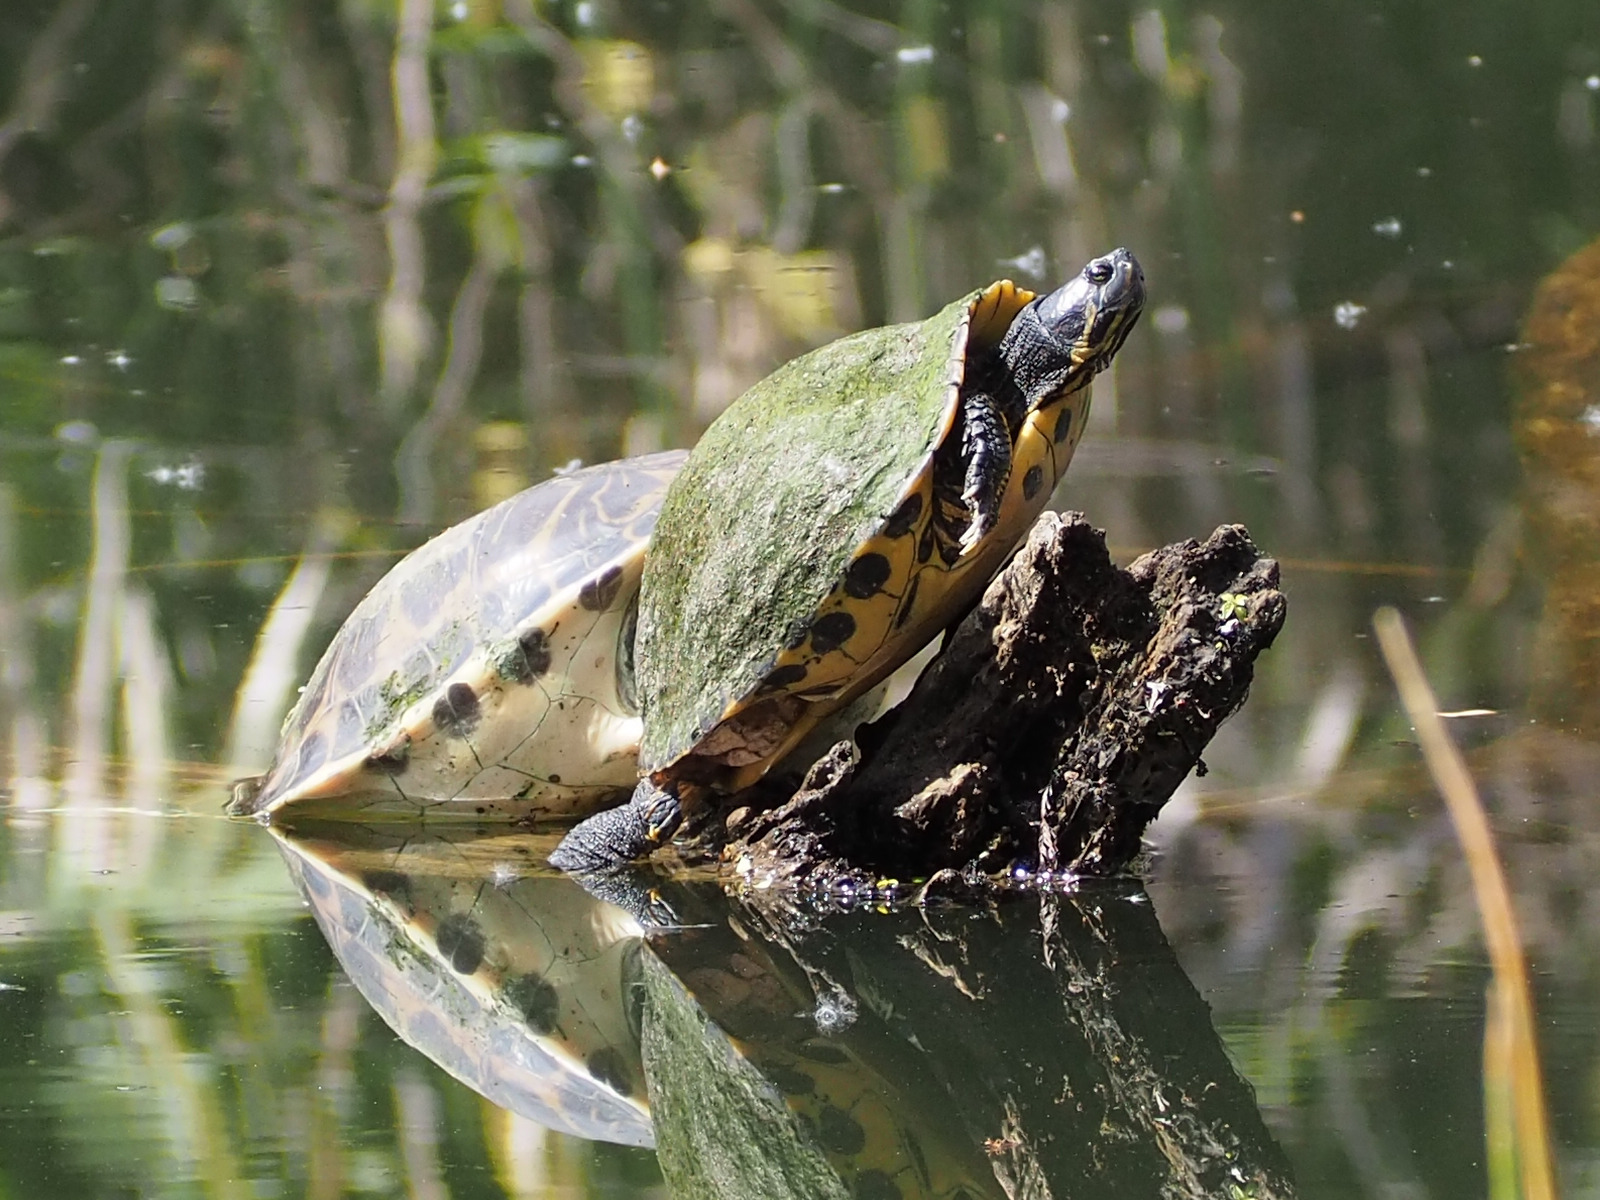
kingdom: Animalia
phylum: Chordata
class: Testudines
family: Emydidae
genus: Trachemys
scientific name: Trachemys scripta
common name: Slider
